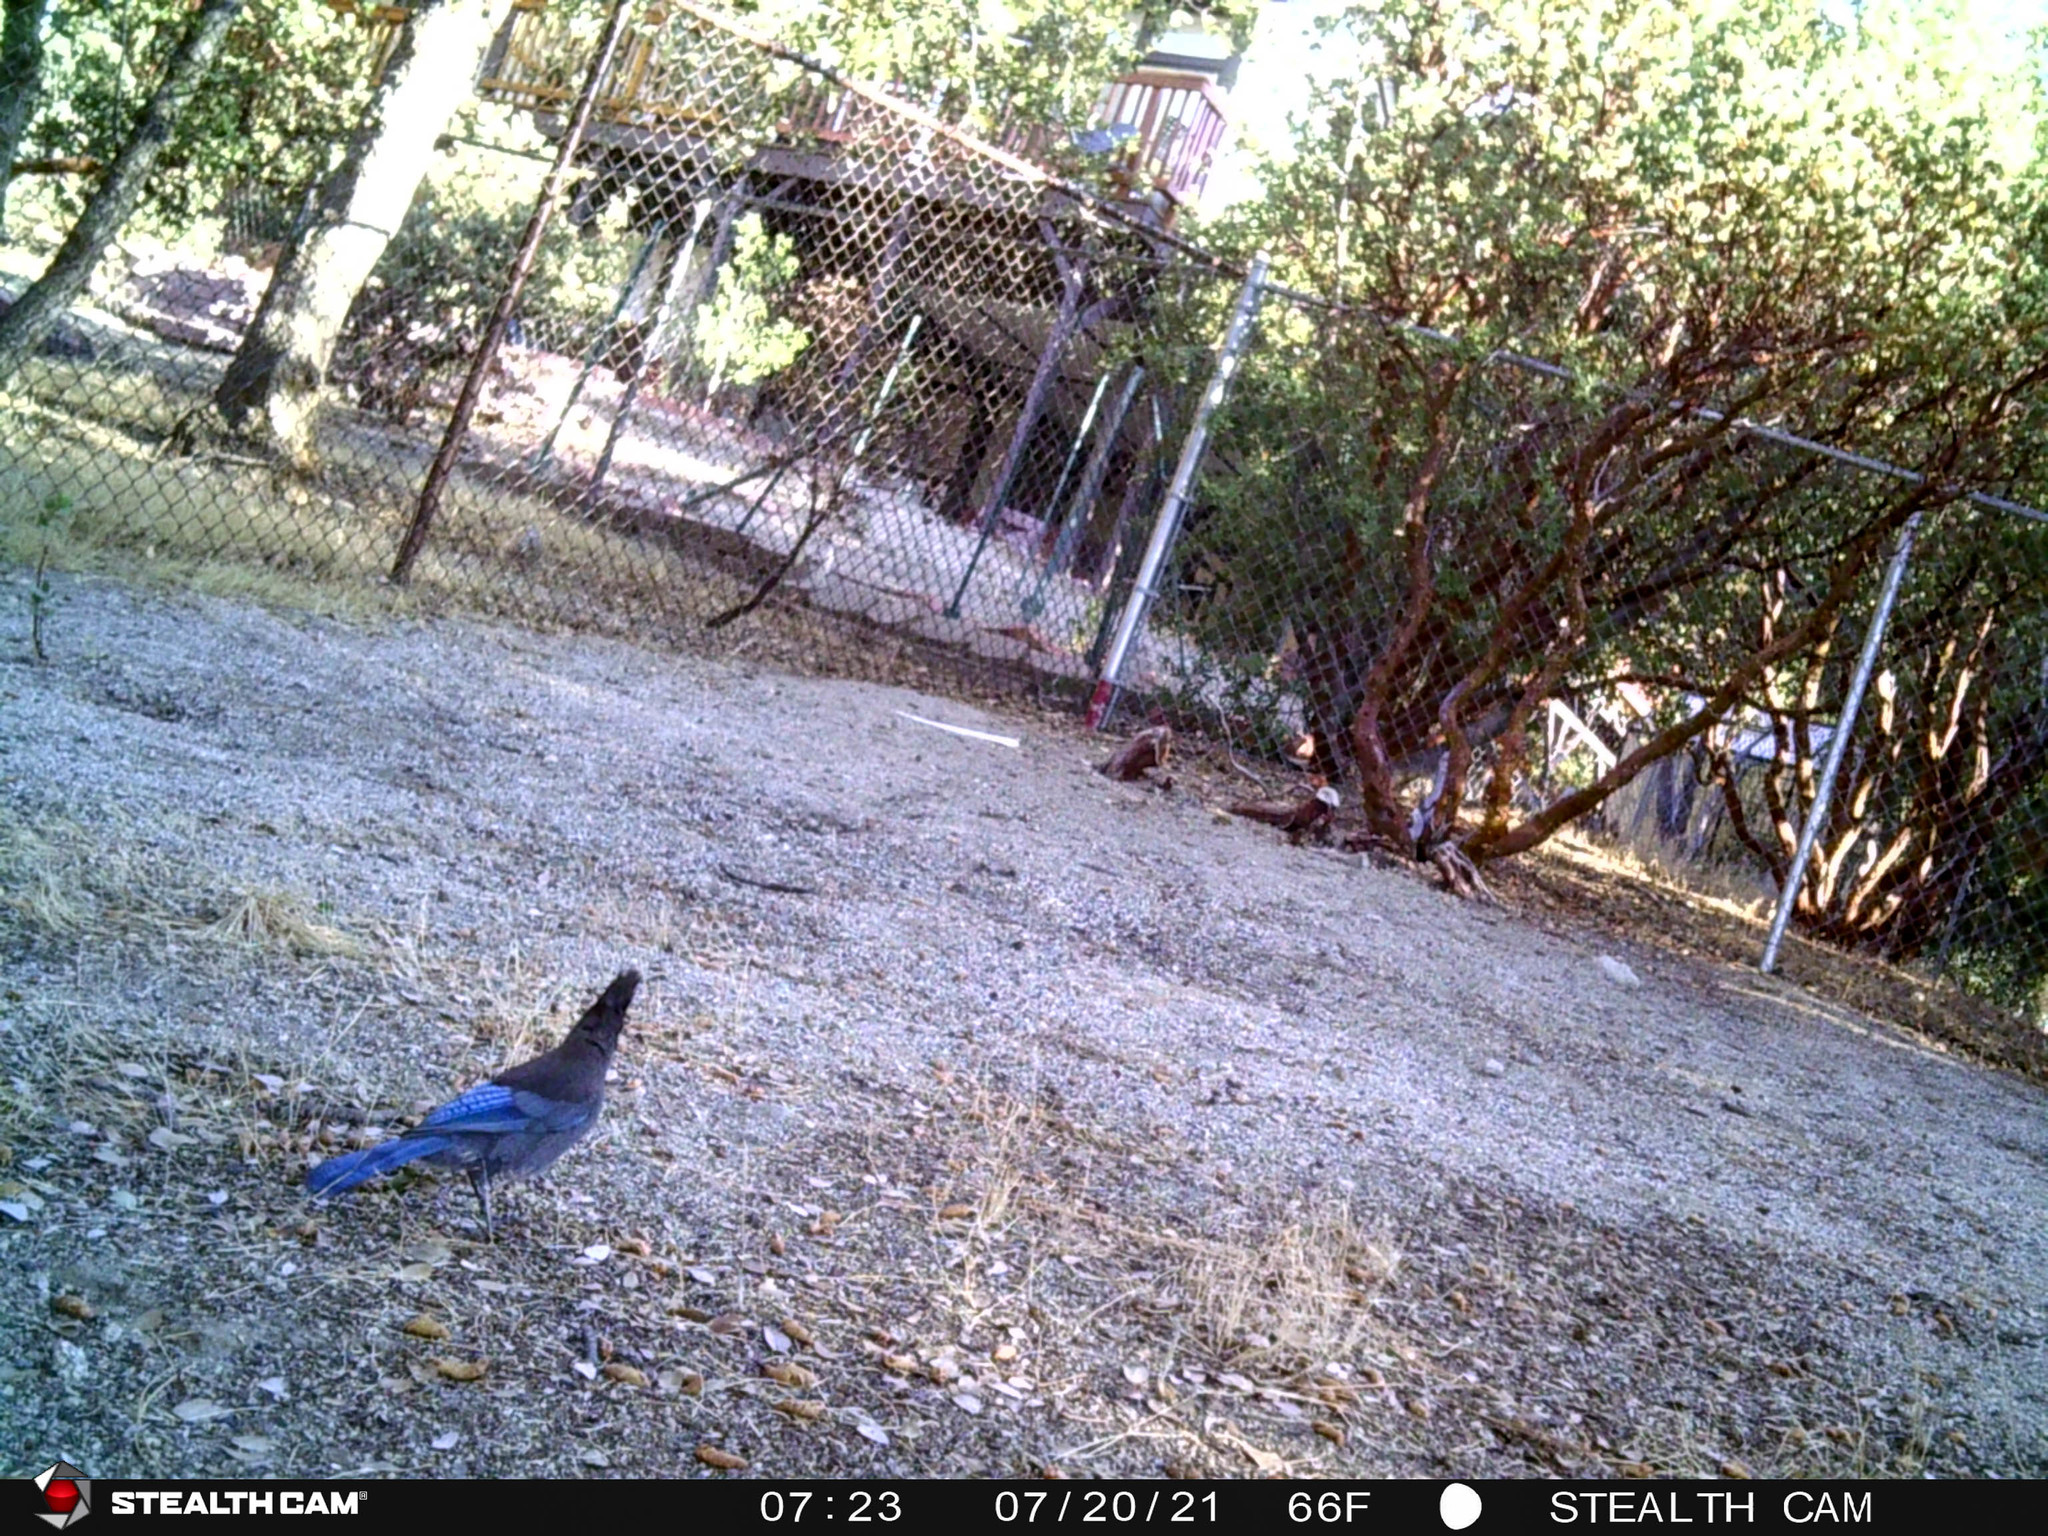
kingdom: Animalia
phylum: Chordata
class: Aves
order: Passeriformes
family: Corvidae
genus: Cyanocitta
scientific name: Cyanocitta stelleri
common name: Steller's jay
